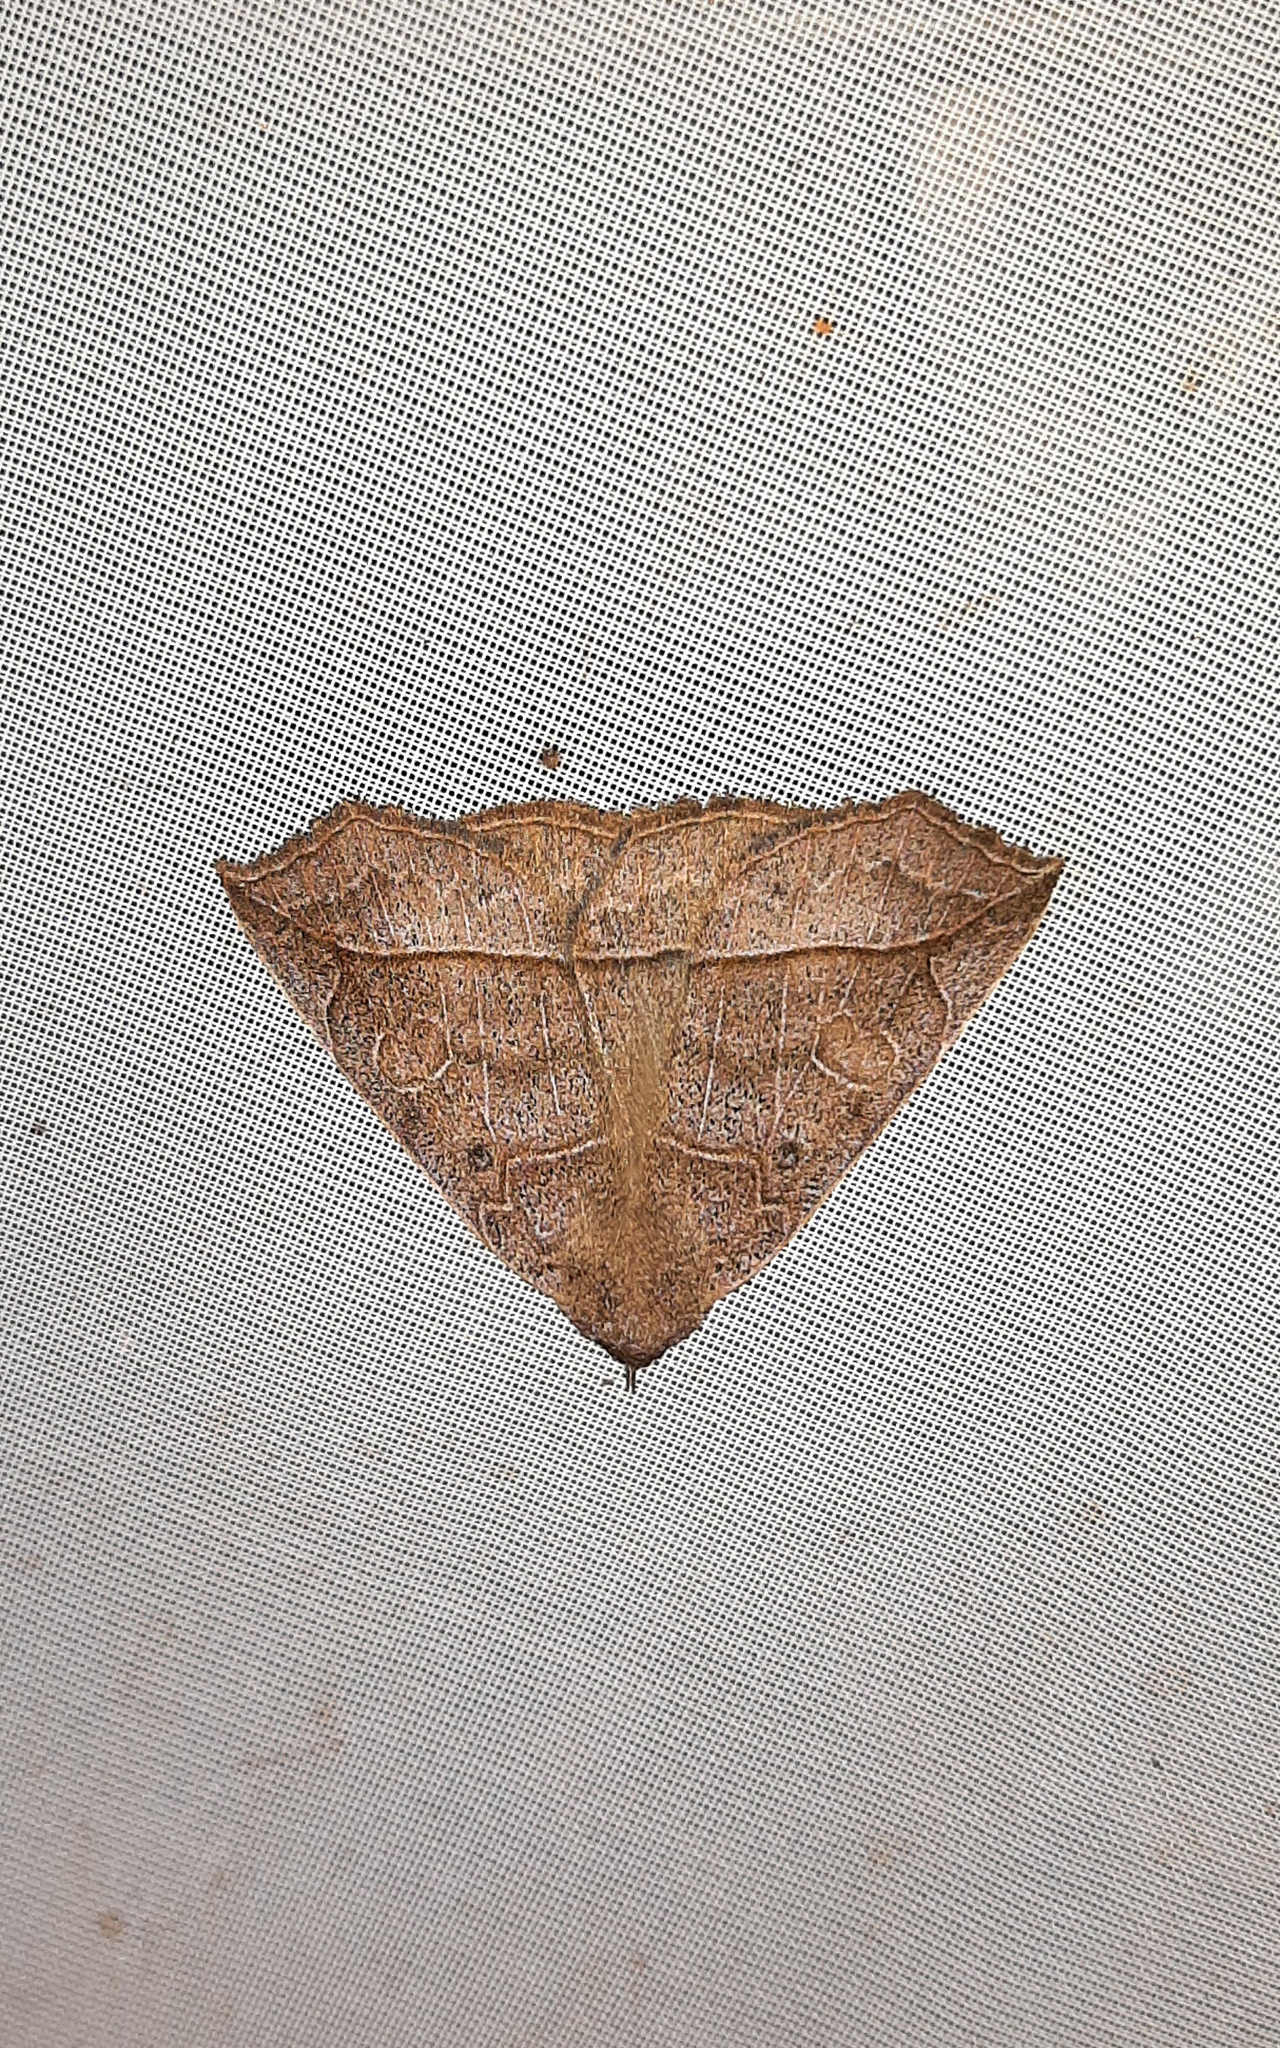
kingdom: Animalia
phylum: Arthropoda
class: Insecta
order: Lepidoptera
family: Erebidae
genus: Isogona
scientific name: Isogona tenuis
